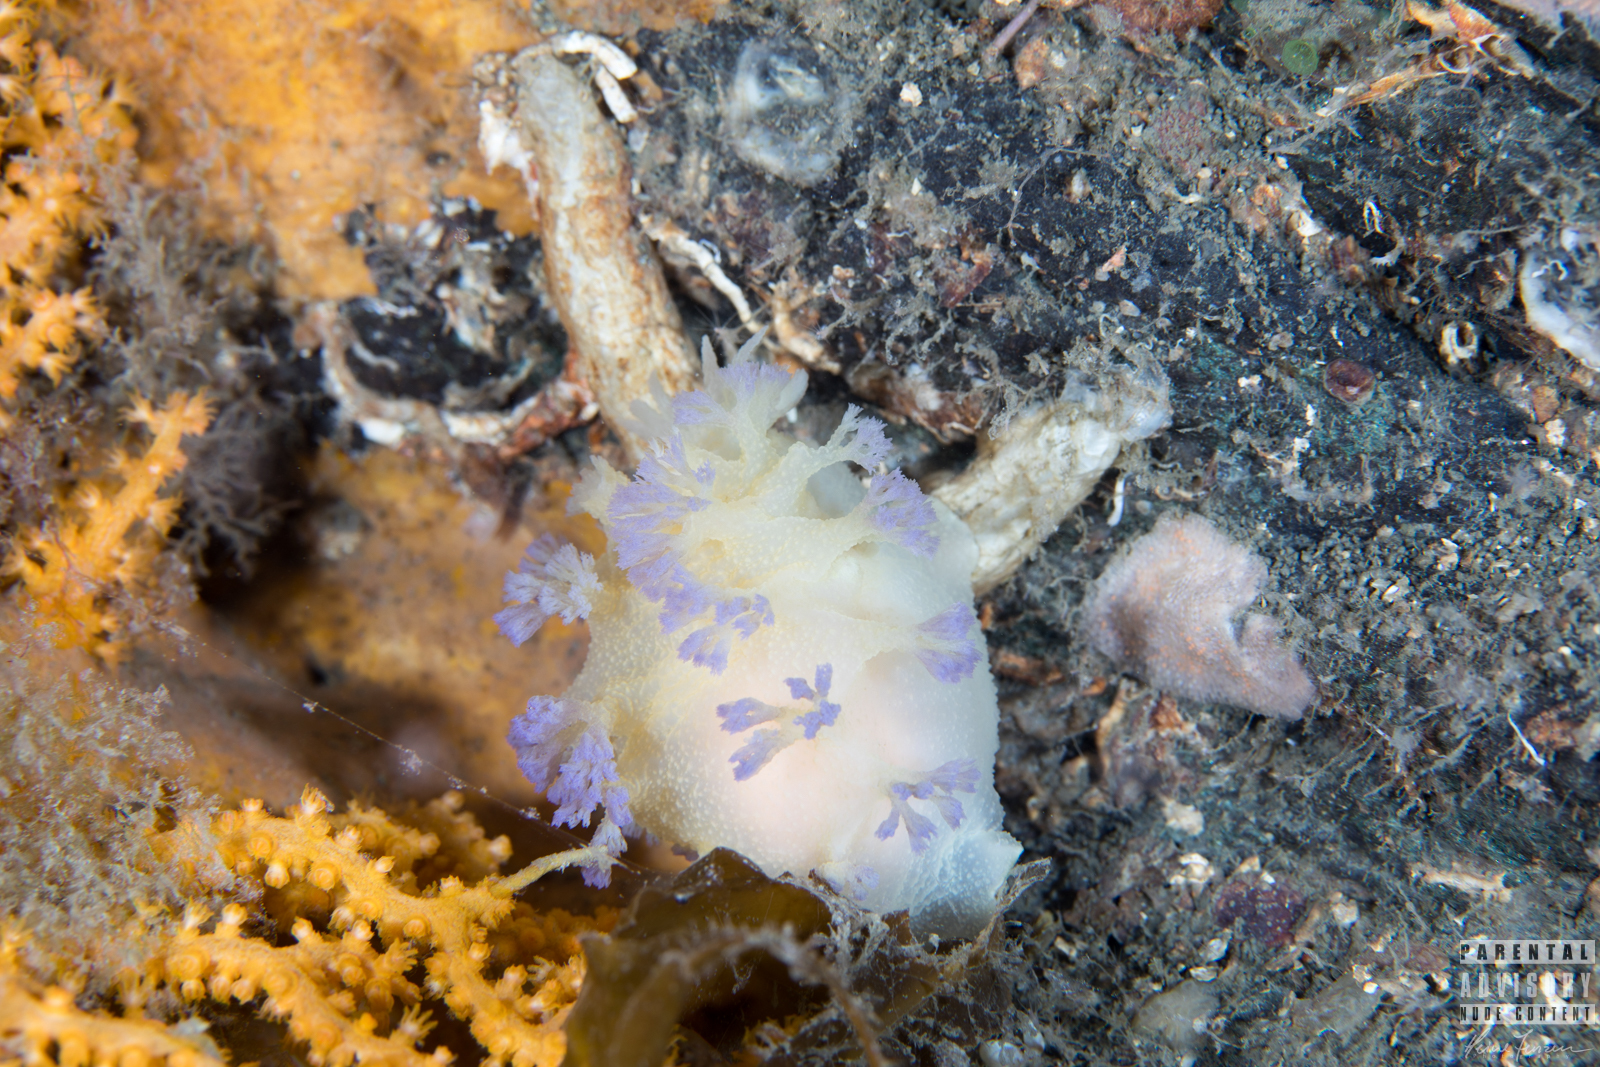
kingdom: Animalia
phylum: Mollusca
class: Gastropoda
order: Nudibranchia
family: Tritoniidae
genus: Tritonia
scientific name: Tritonia griegi
